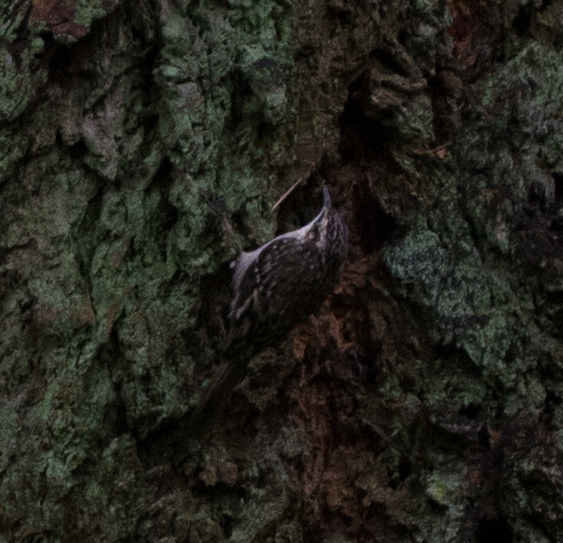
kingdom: Animalia
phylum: Chordata
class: Aves
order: Passeriformes
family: Certhiidae
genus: Certhia
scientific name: Certhia americana
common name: Brown creeper
